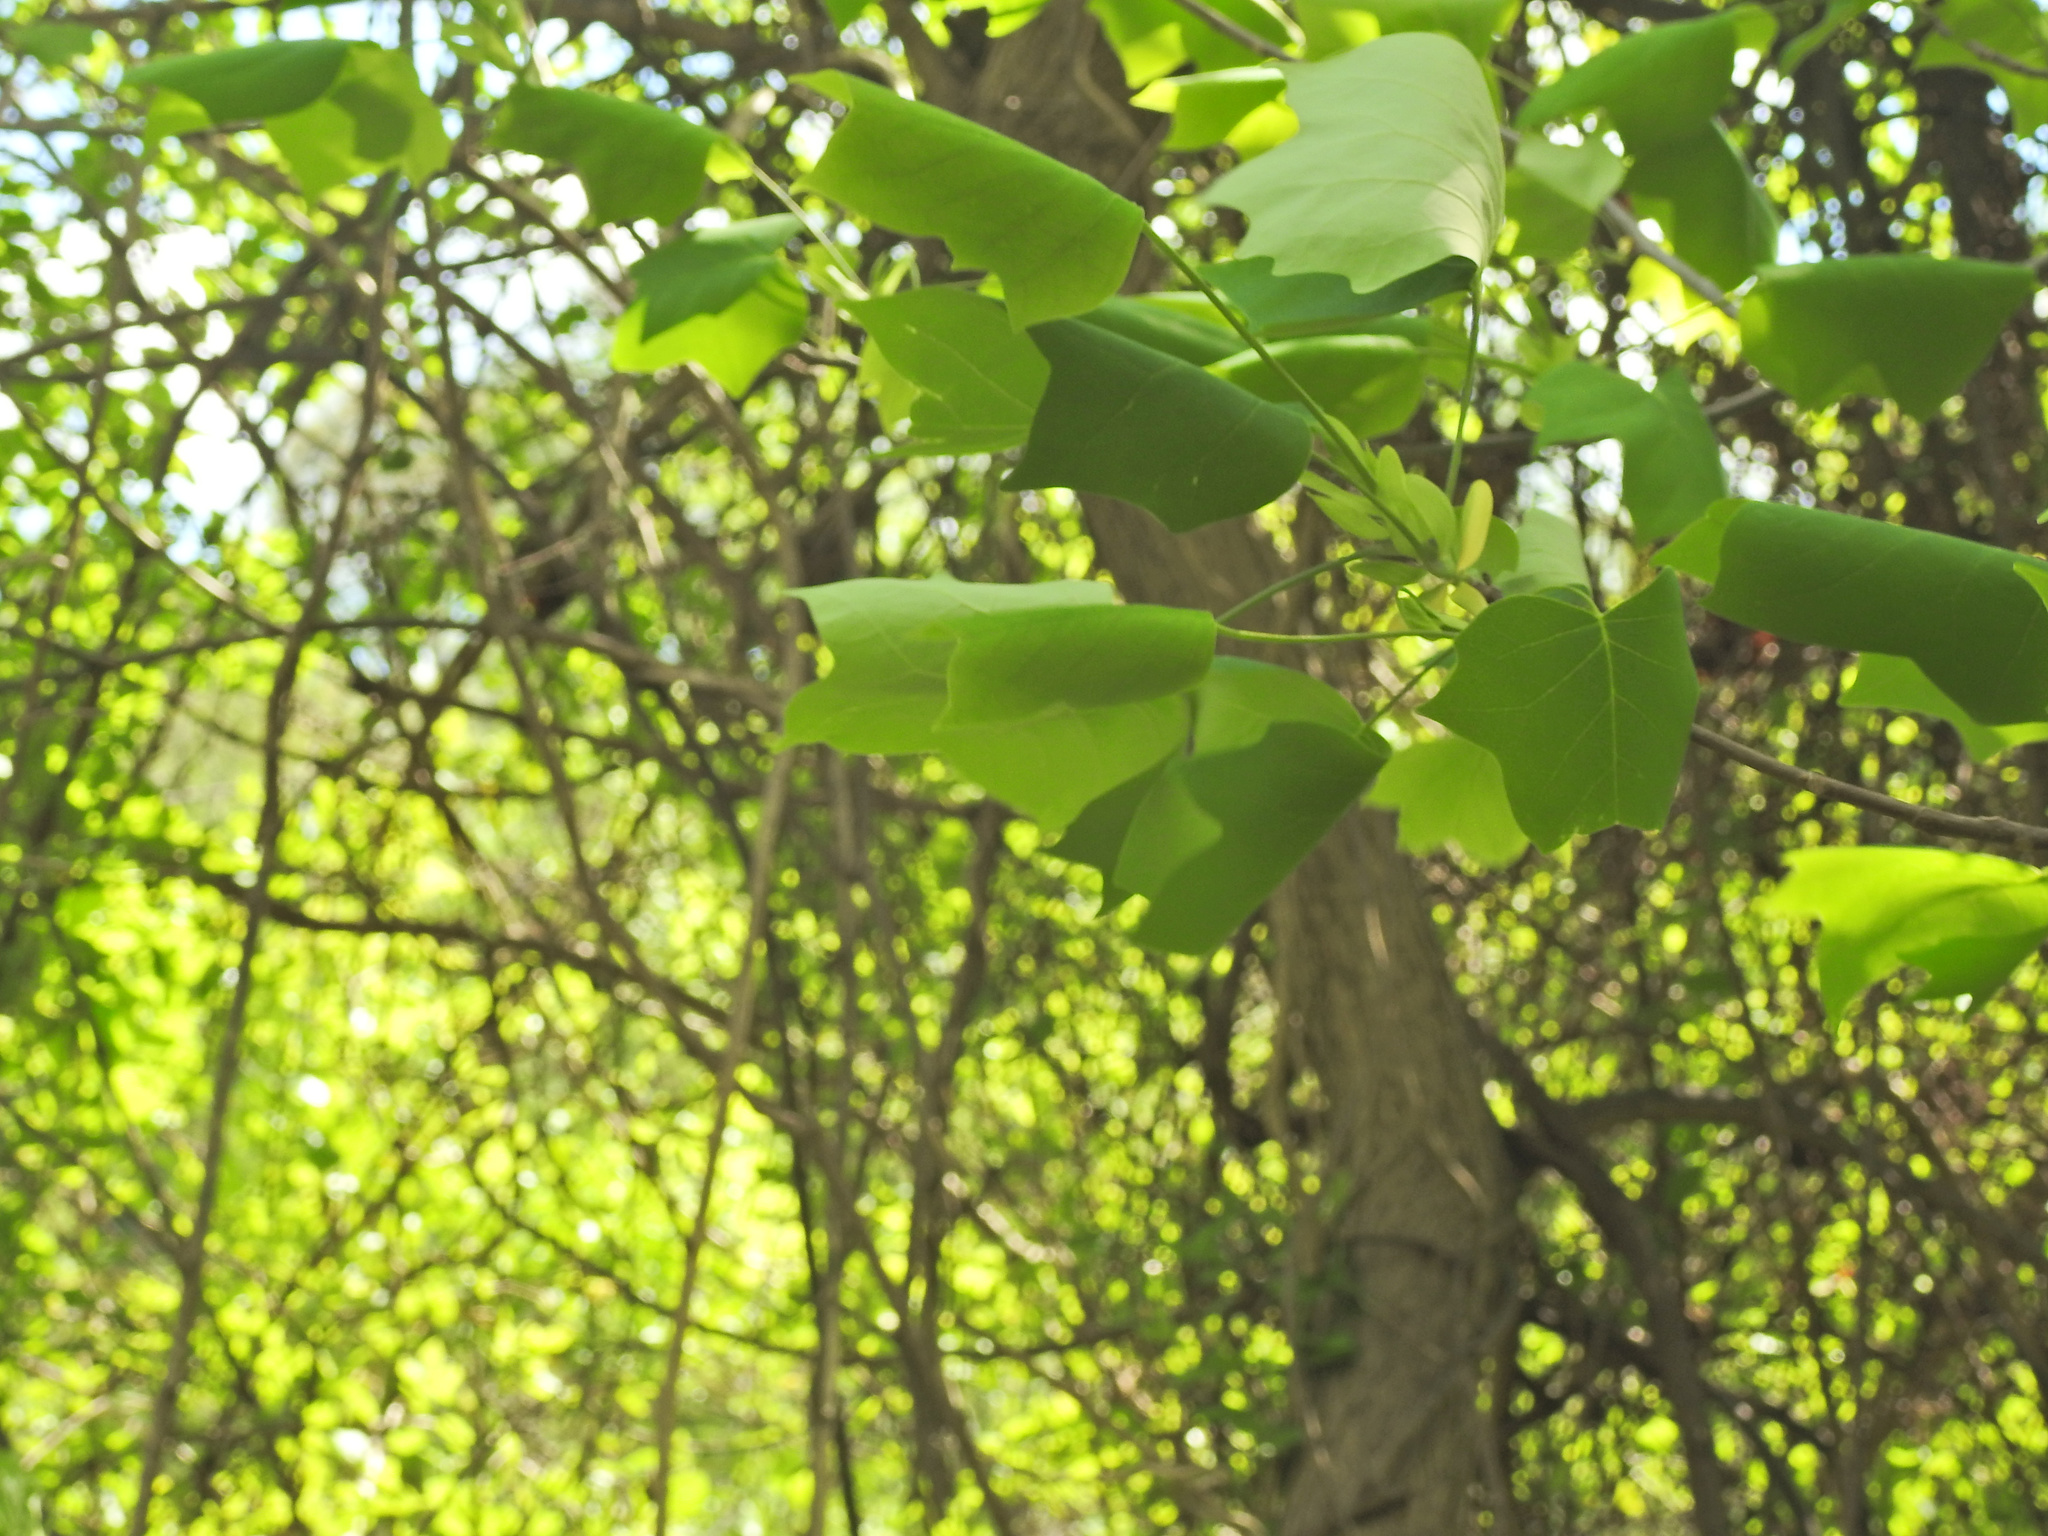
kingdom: Plantae
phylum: Tracheophyta
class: Magnoliopsida
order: Magnoliales
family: Magnoliaceae
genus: Liriodendron
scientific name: Liriodendron tulipifera
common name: Tulip tree
